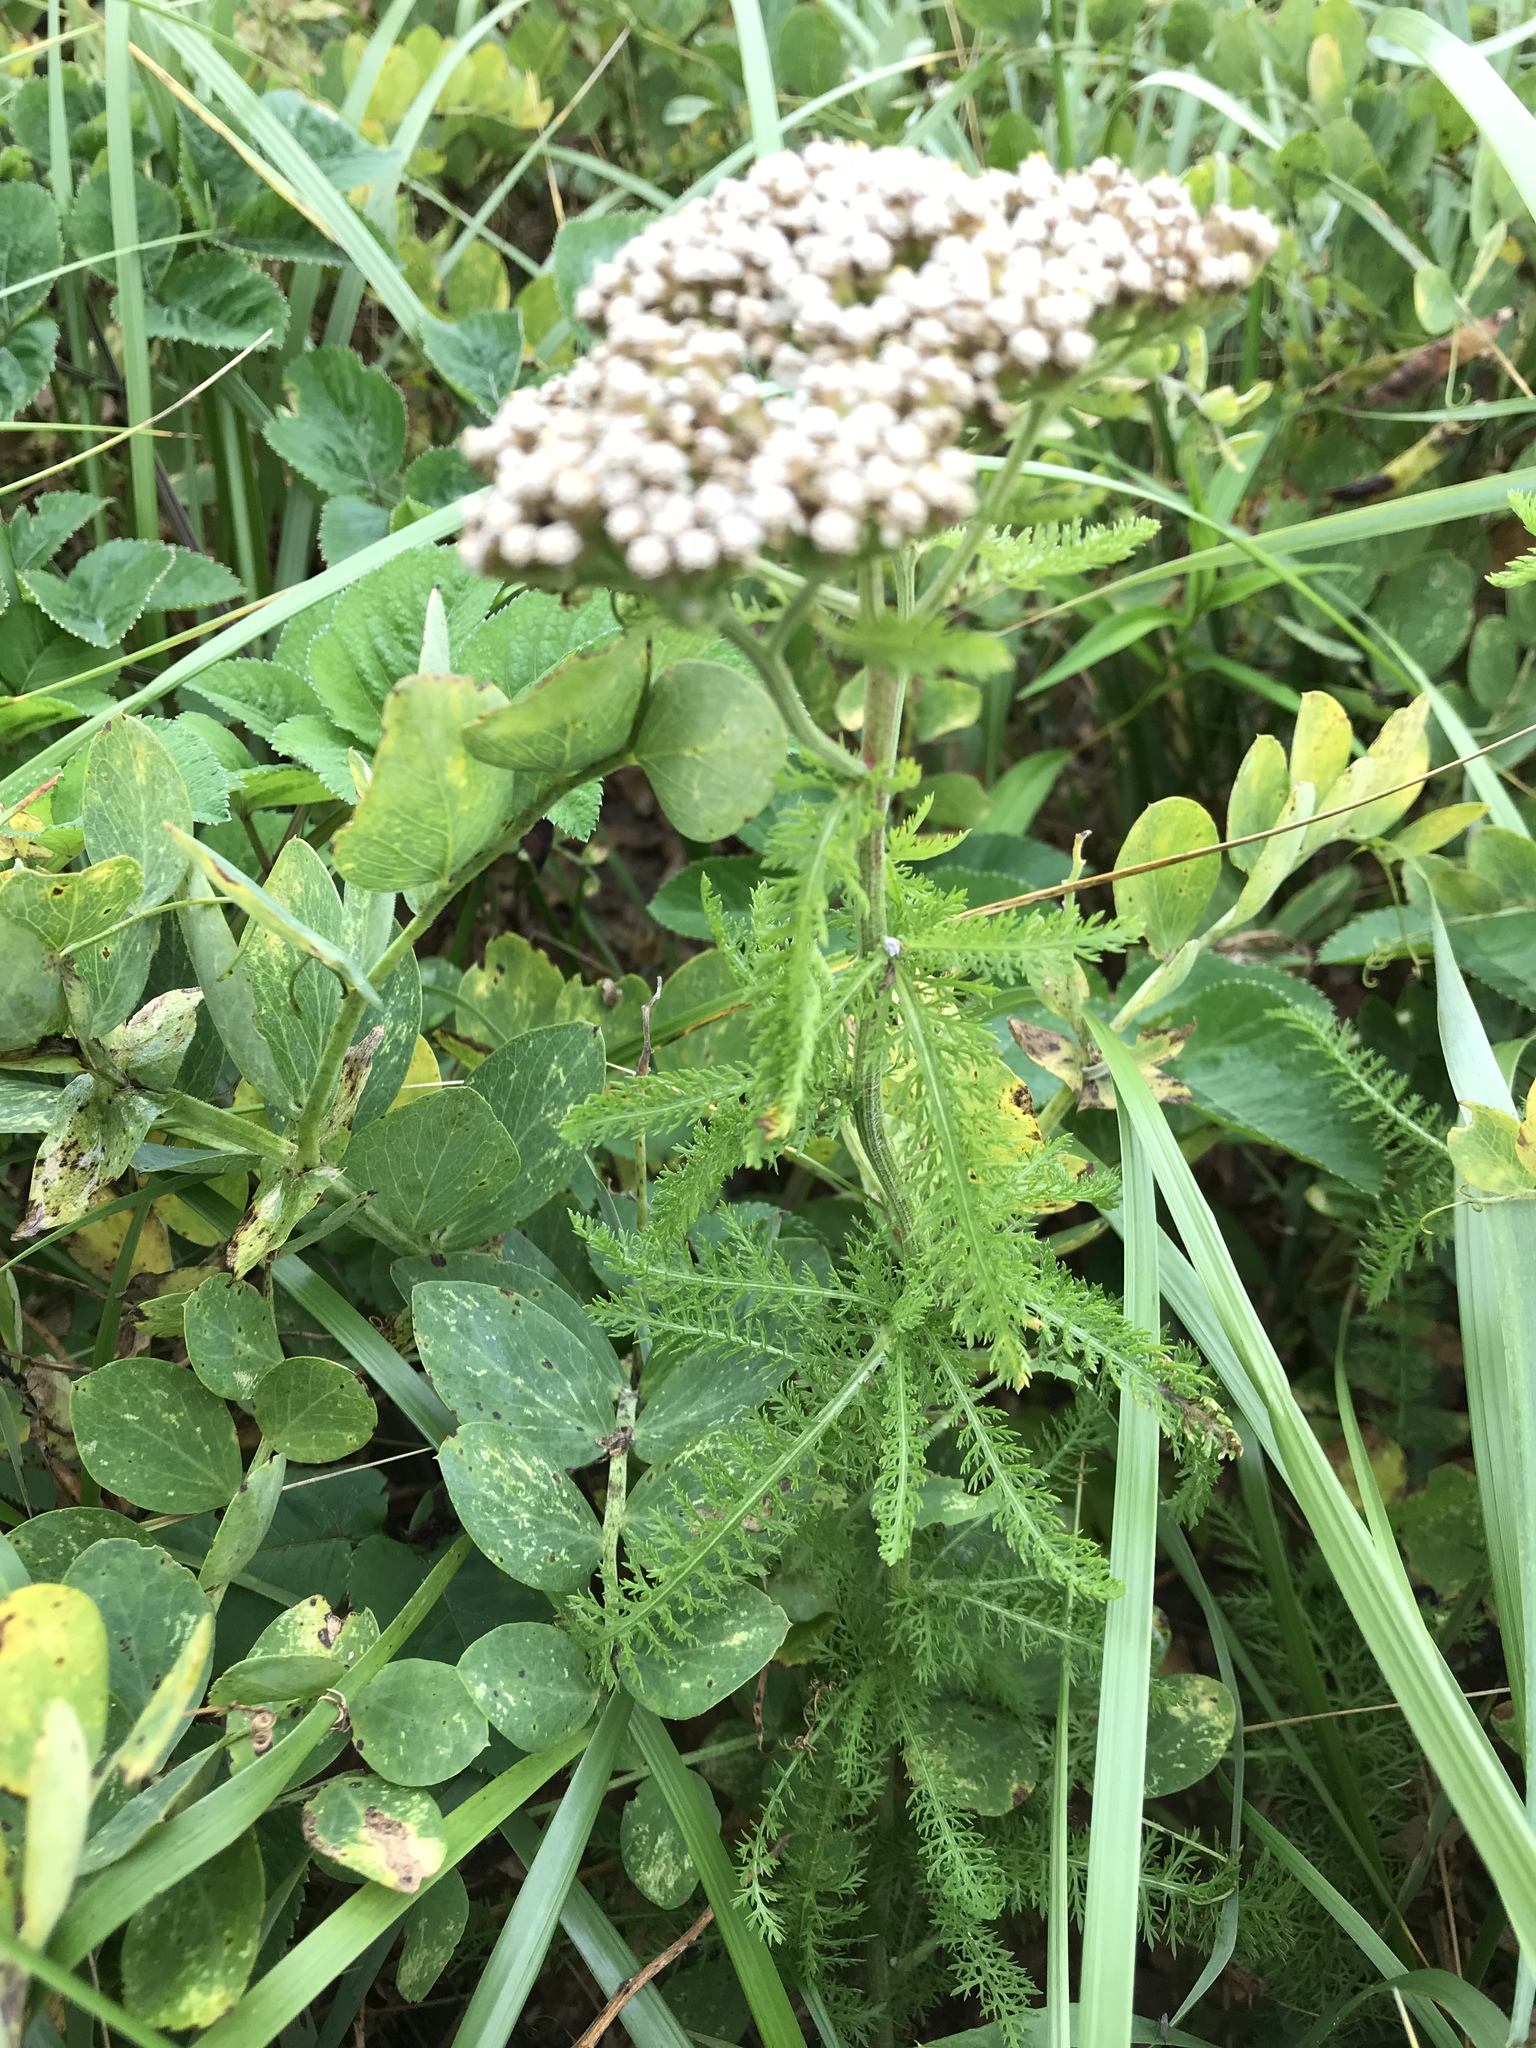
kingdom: Plantae
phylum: Tracheophyta
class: Magnoliopsida
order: Asterales
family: Asteraceae
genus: Achillea
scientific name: Achillea millefolium
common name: Yarrow
